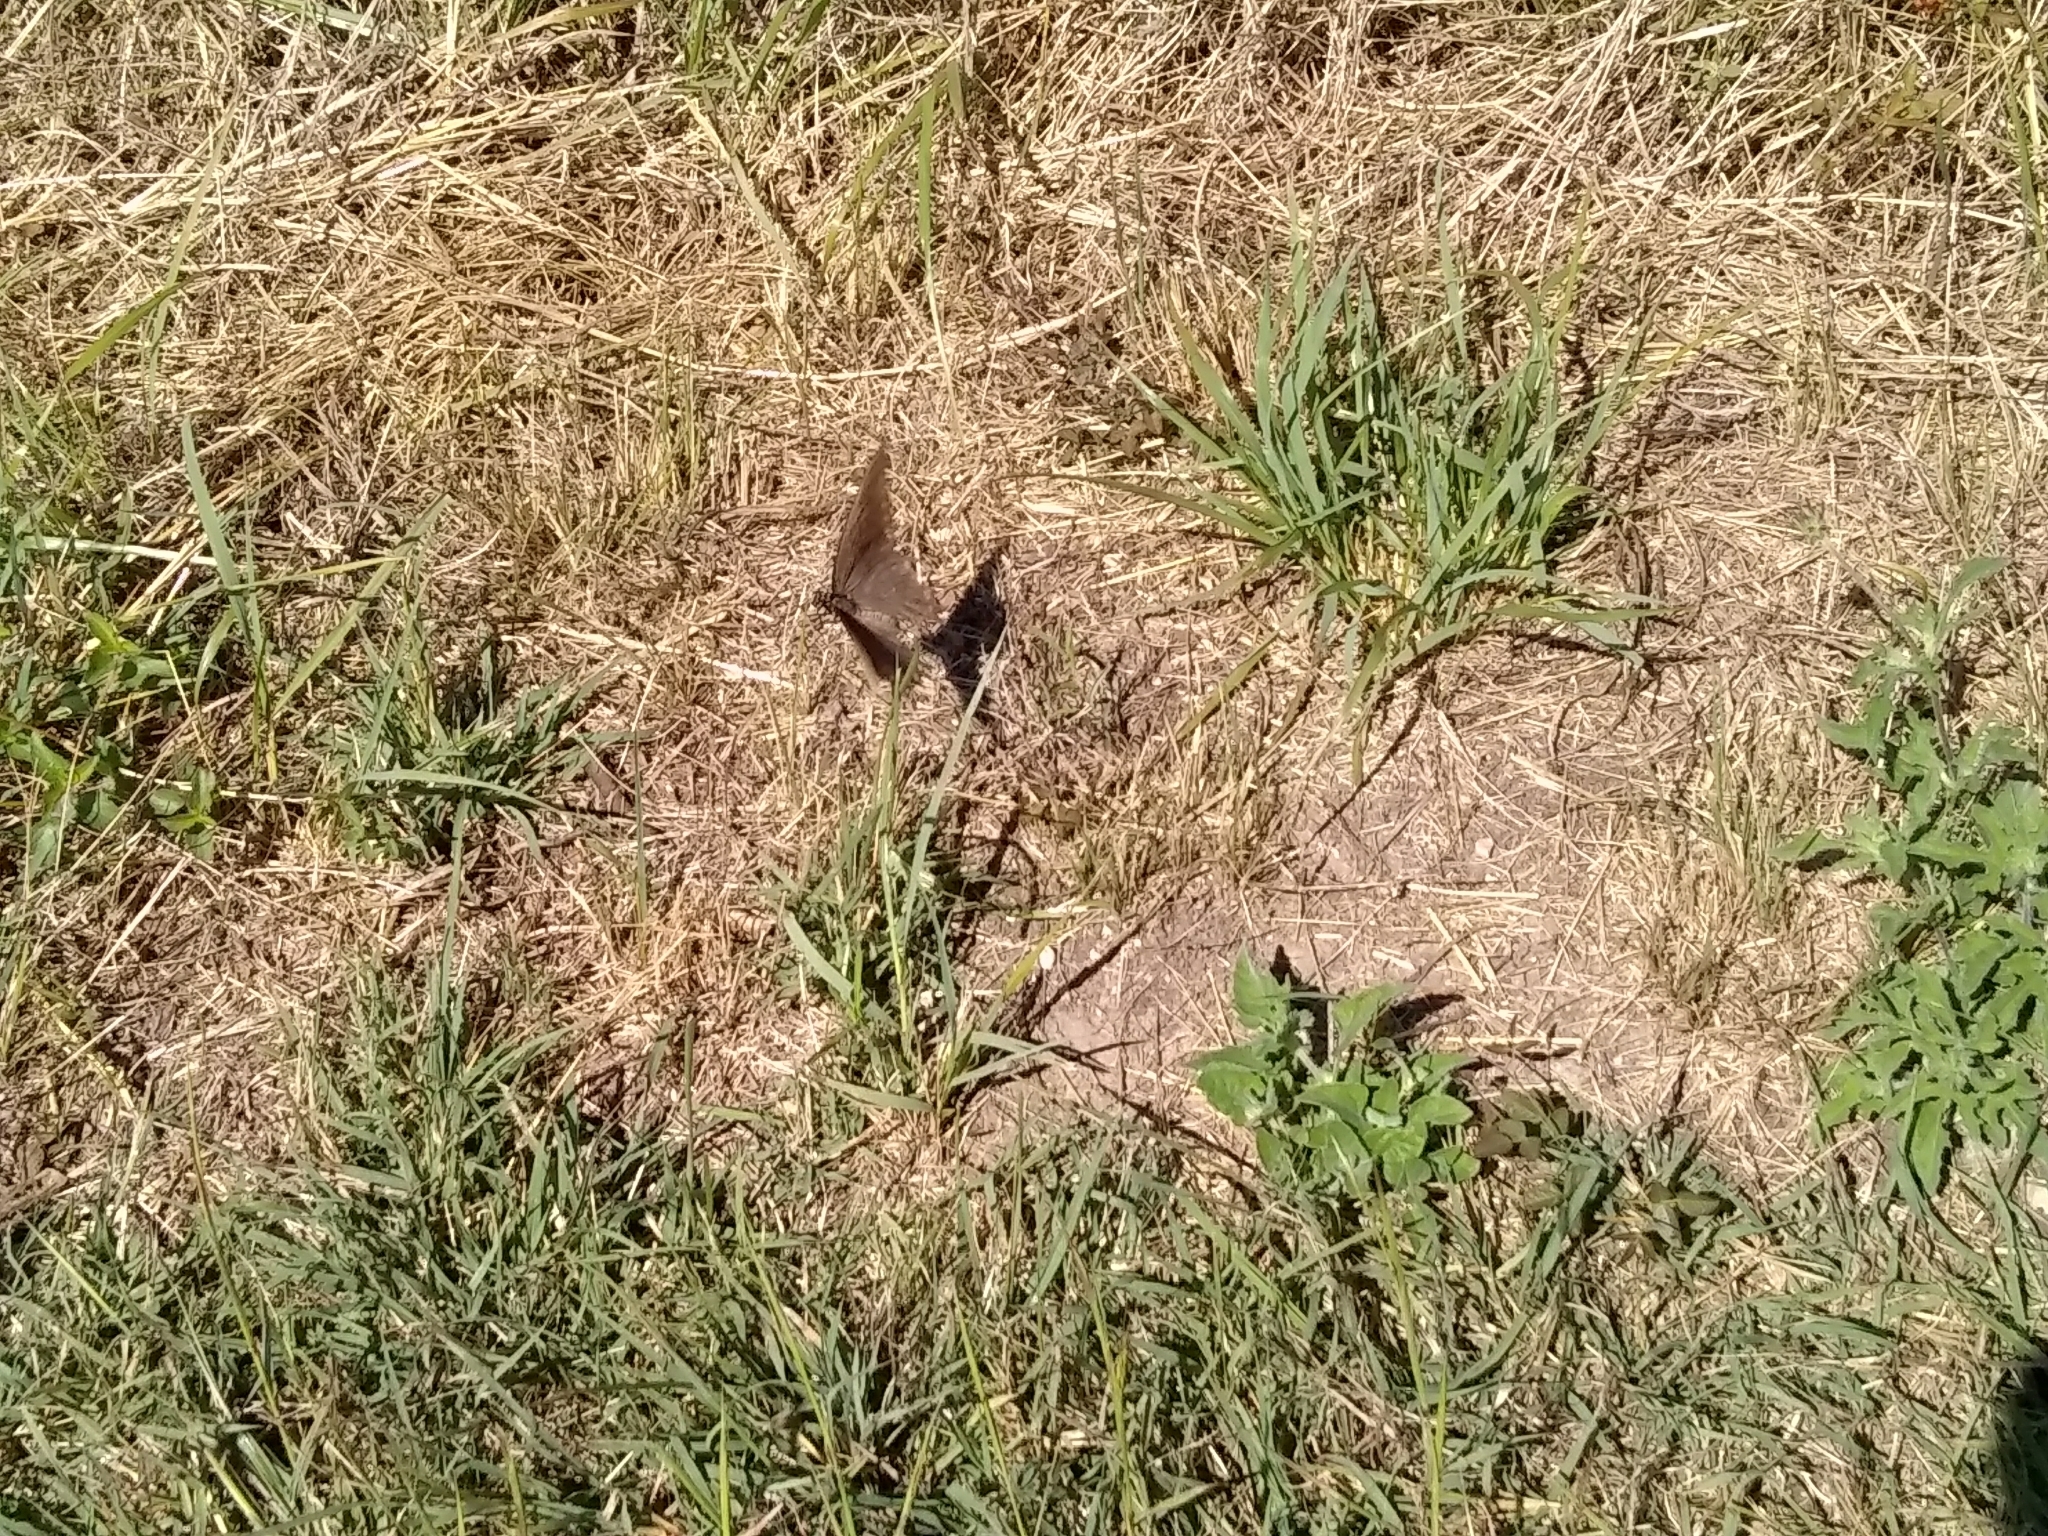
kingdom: Animalia
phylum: Arthropoda
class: Insecta
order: Lepidoptera
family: Papilionidae
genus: Battus
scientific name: Battus philenor
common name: Pipevine swallowtail
